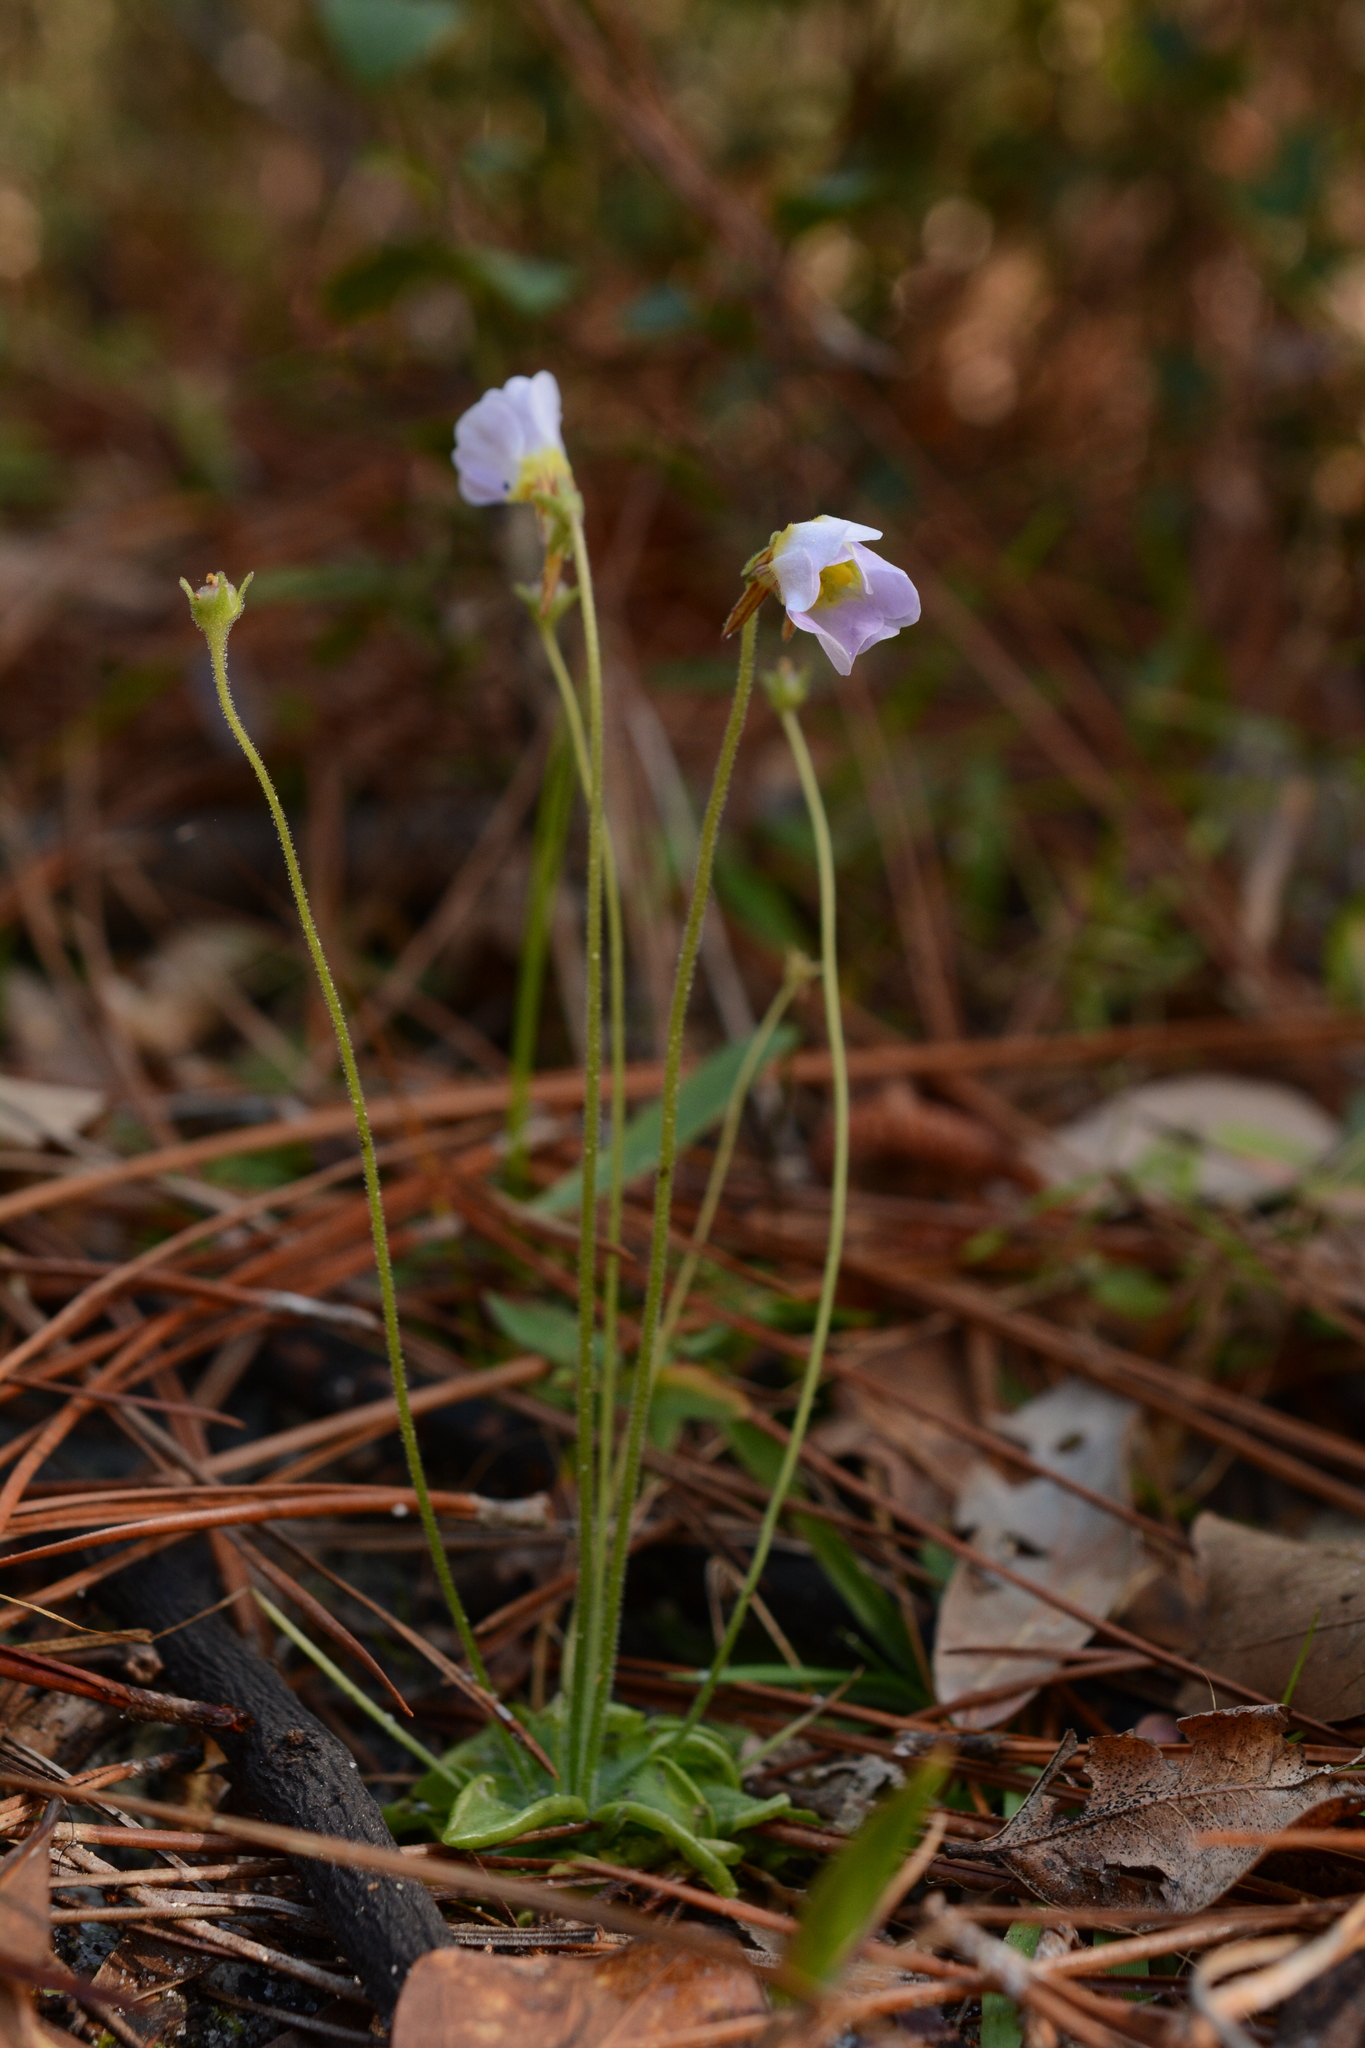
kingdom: Plantae
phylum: Tracheophyta
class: Magnoliopsida
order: Lamiales
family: Lentibulariaceae
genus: Pinguicula
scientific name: Pinguicula pumila
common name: Small butterwort
